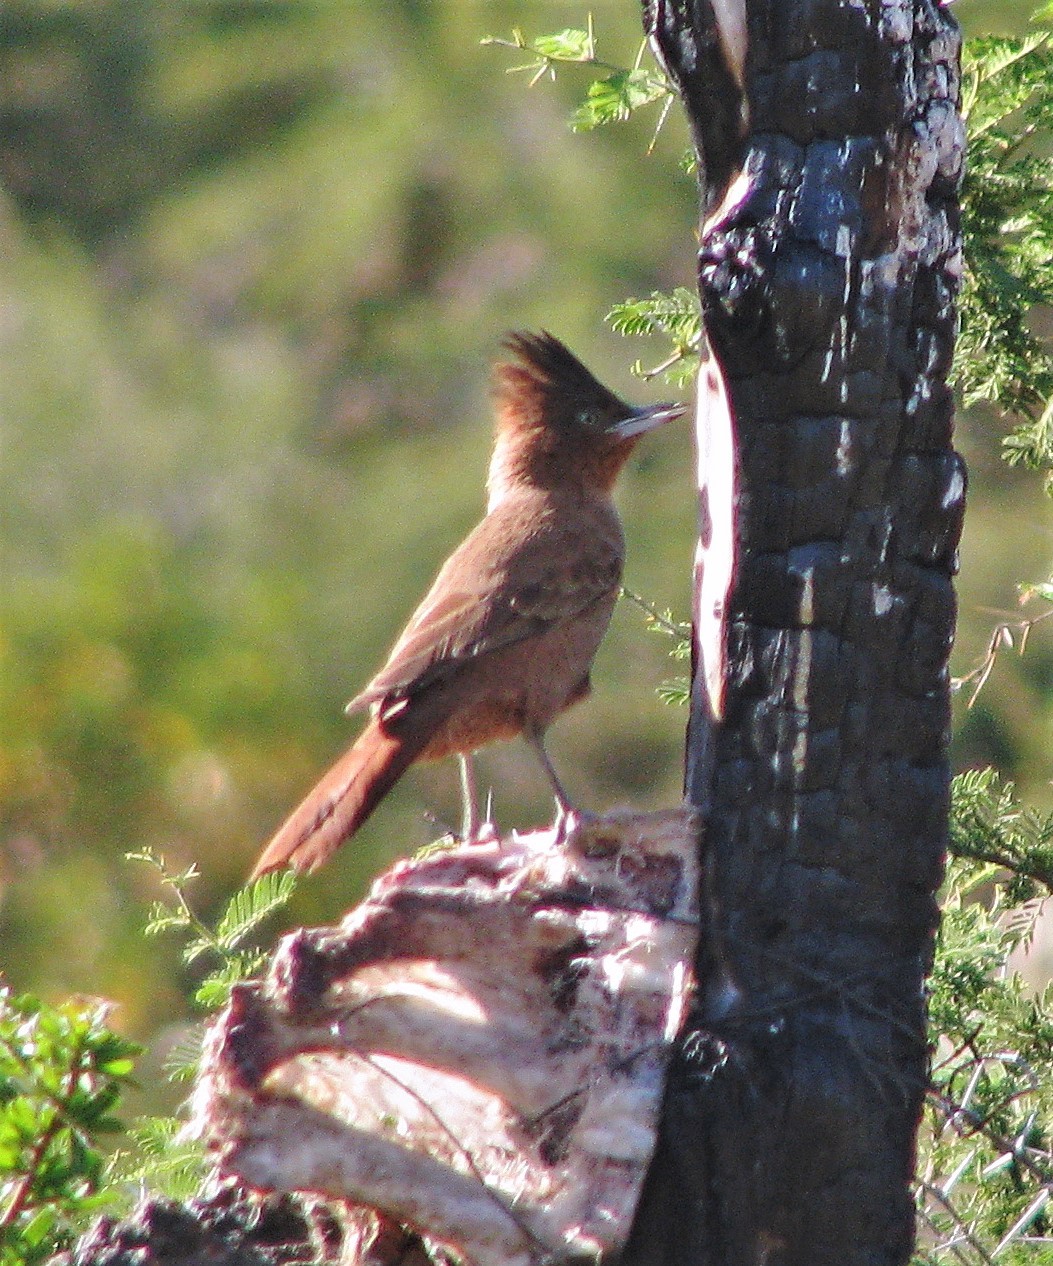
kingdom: Animalia
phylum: Chordata
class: Aves
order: Passeriformes
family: Furnariidae
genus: Pseudoseisura
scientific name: Pseudoseisura lophotes
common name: Brown cacholote
